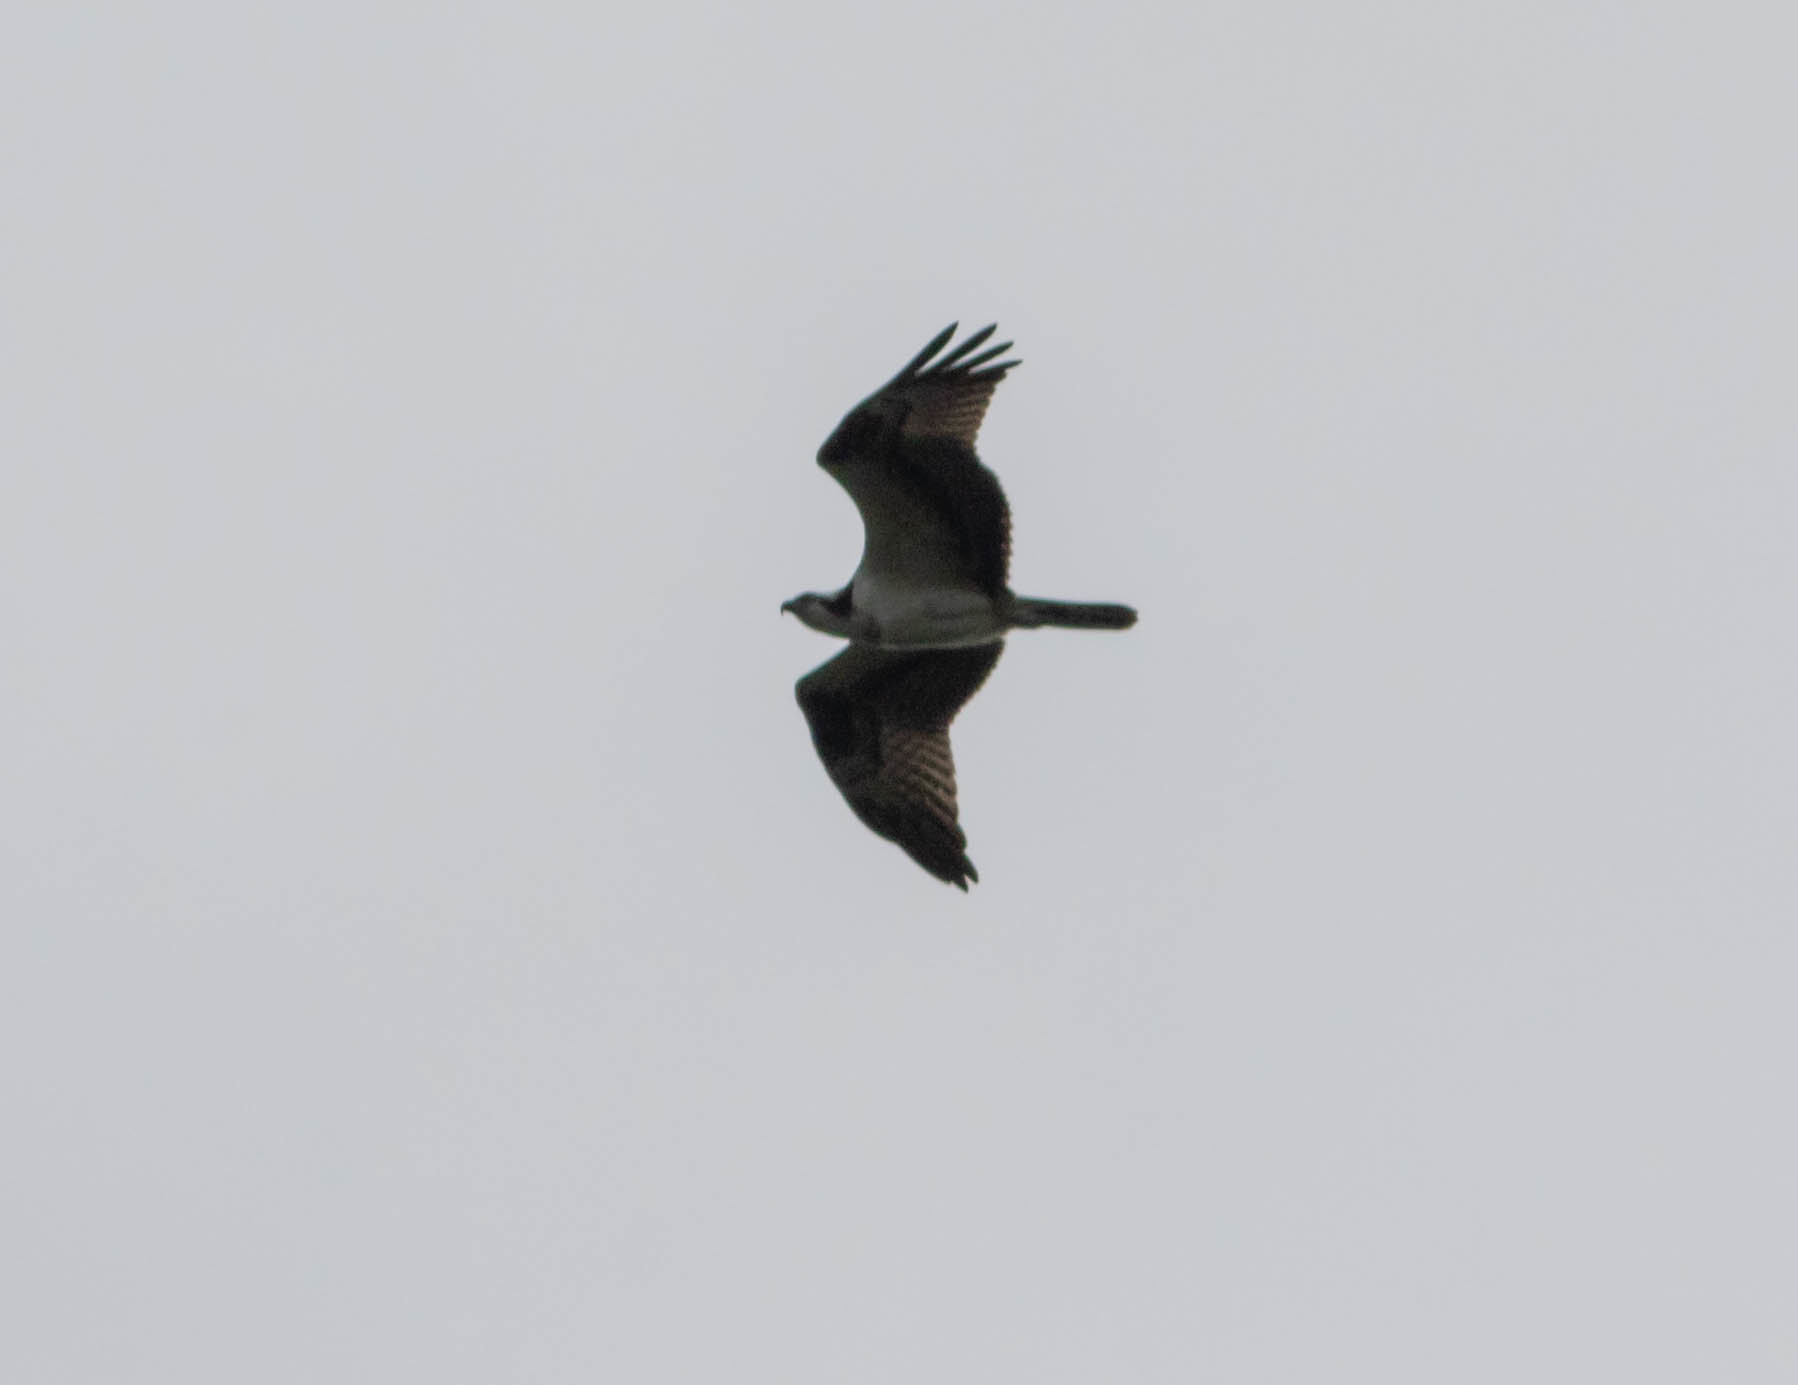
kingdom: Animalia
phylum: Chordata
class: Aves
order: Accipitriformes
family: Pandionidae
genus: Pandion
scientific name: Pandion haliaetus
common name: Osprey
